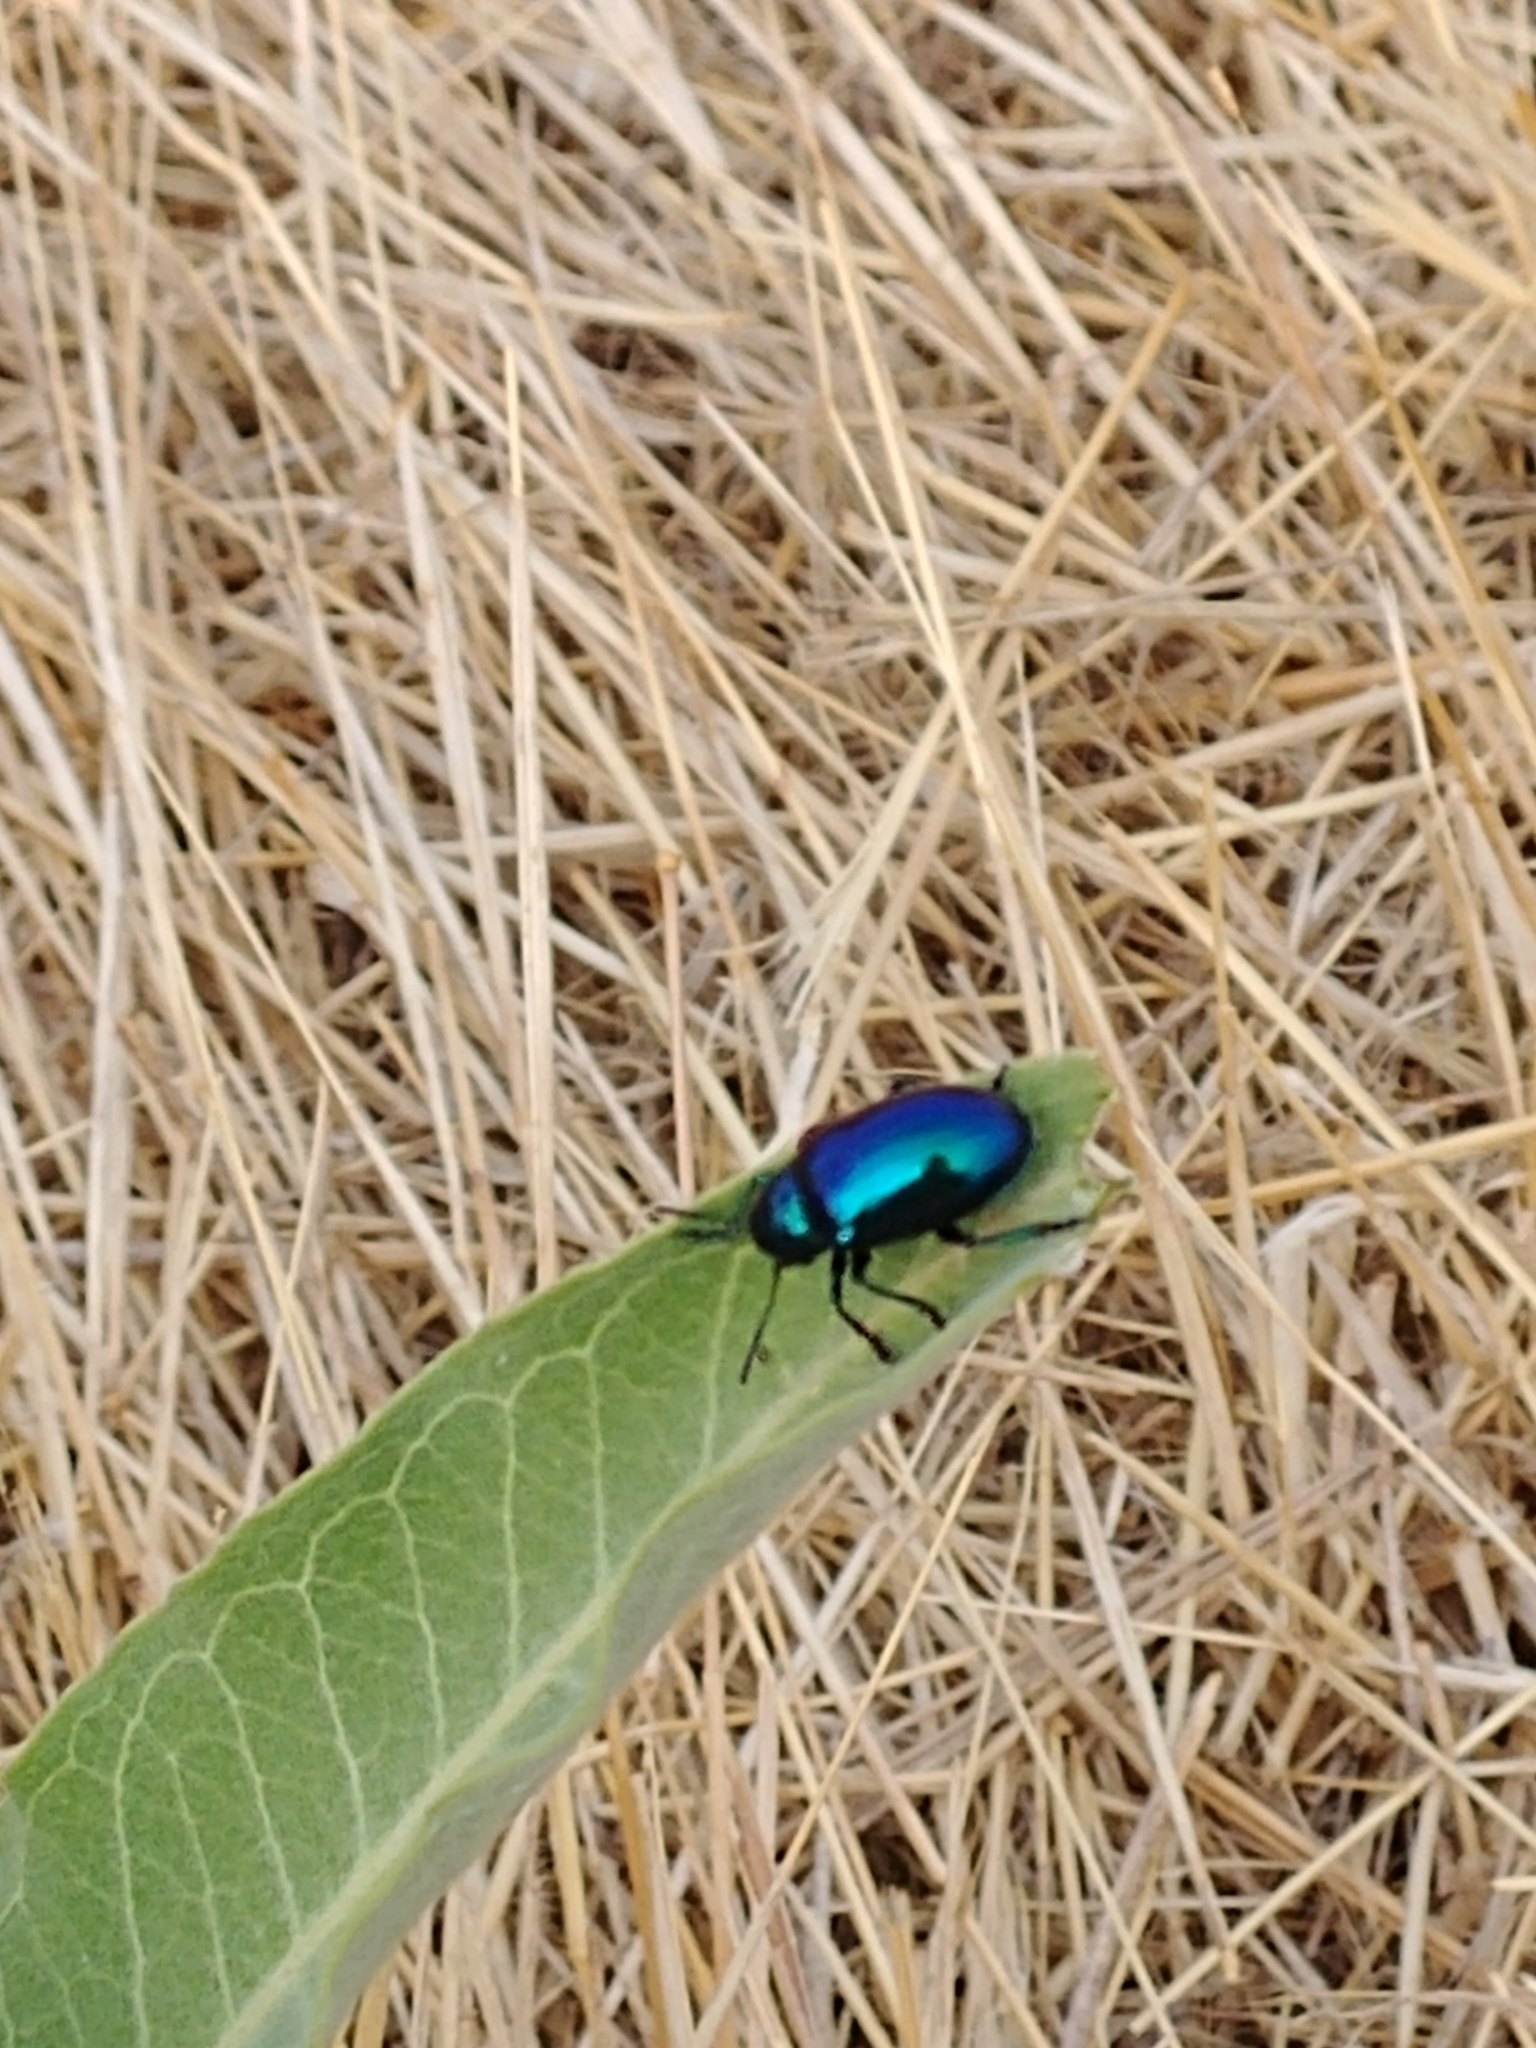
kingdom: Animalia
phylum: Arthropoda
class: Insecta
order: Coleoptera
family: Chrysomelidae
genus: Chrysochus
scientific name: Chrysochus cobaltinus
